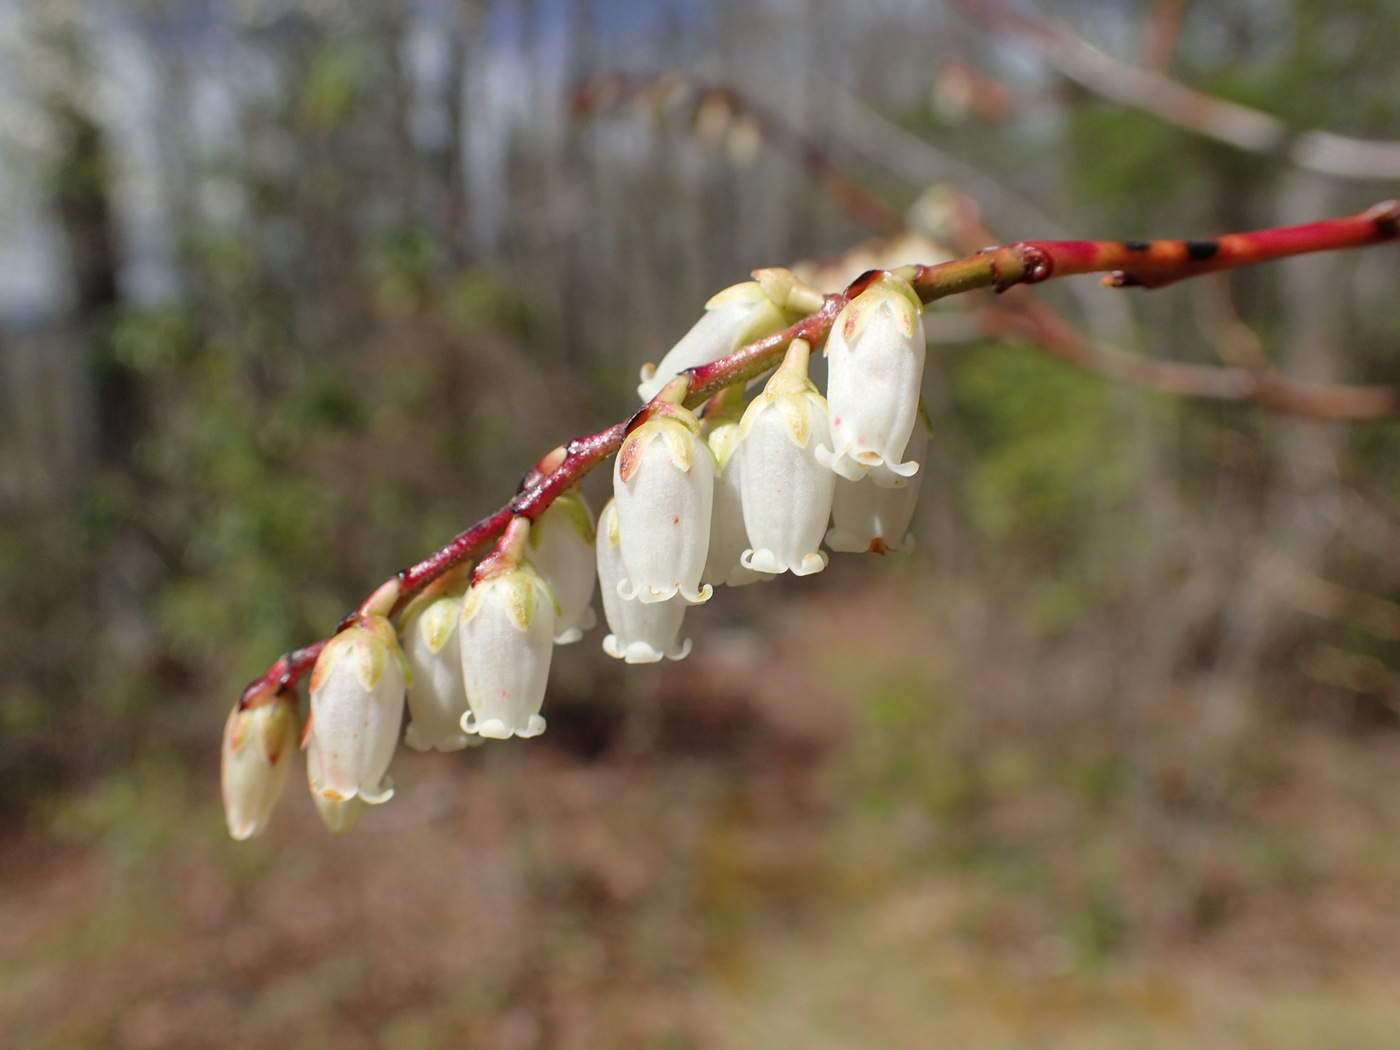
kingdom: Plantae
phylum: Tracheophyta
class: Magnoliopsida
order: Ericales
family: Ericaceae
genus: Eubotrys
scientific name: Eubotrys recurva
